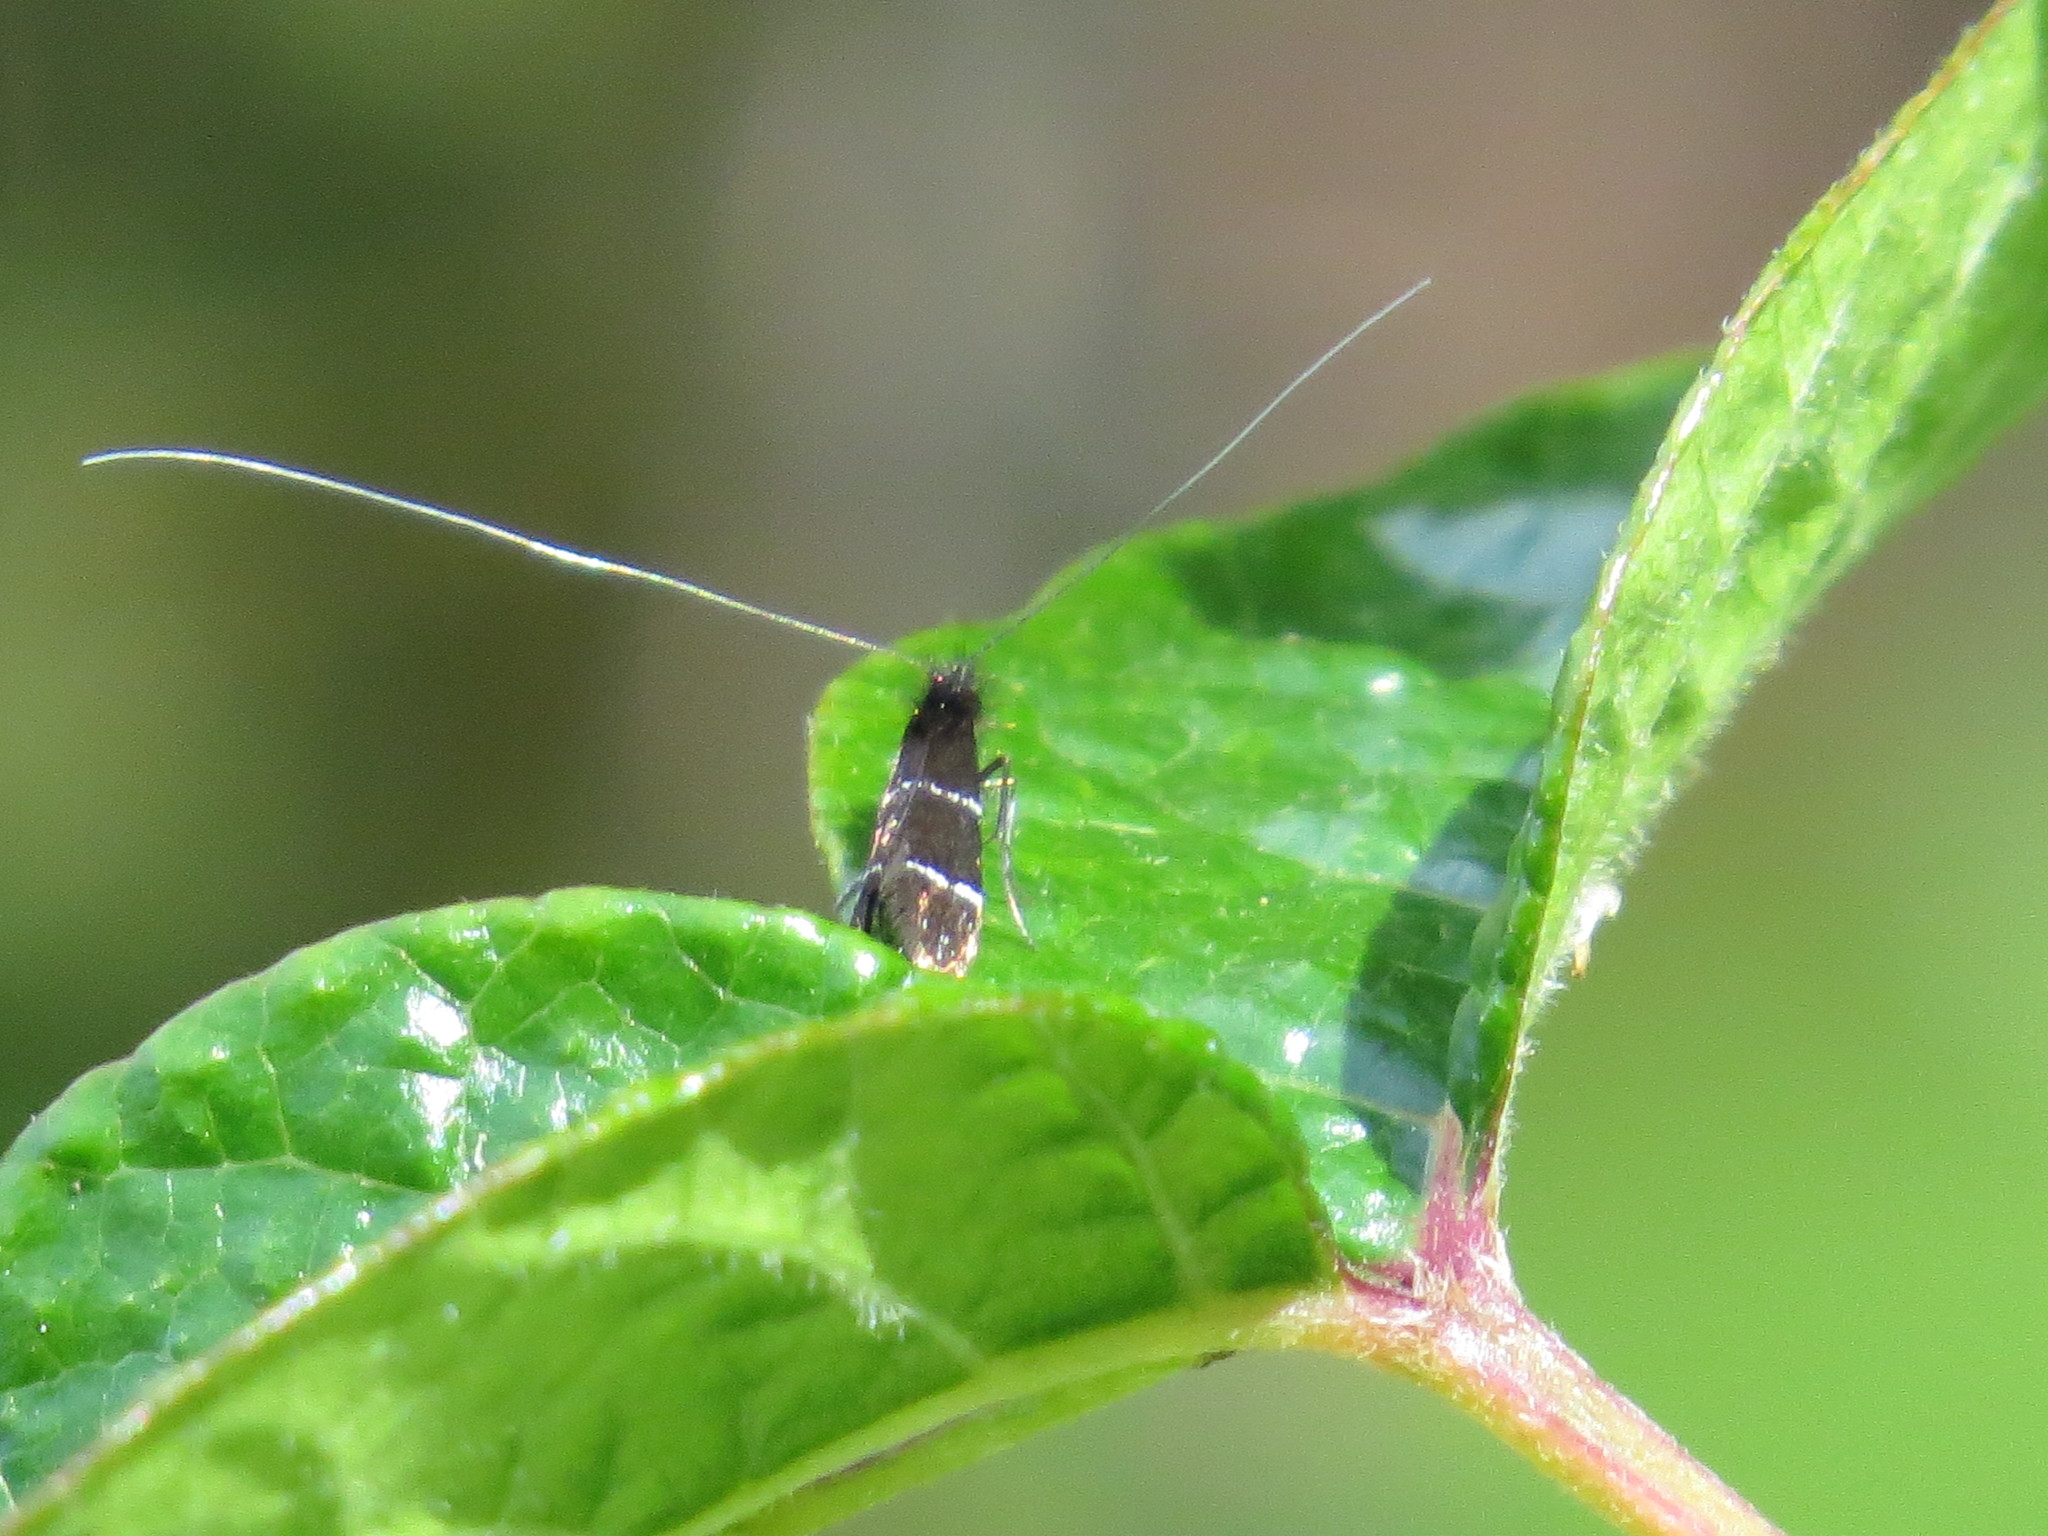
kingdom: Animalia
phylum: Arthropoda
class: Insecta
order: Lepidoptera
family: Adelidae
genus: Adela
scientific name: Adela septentrionella
